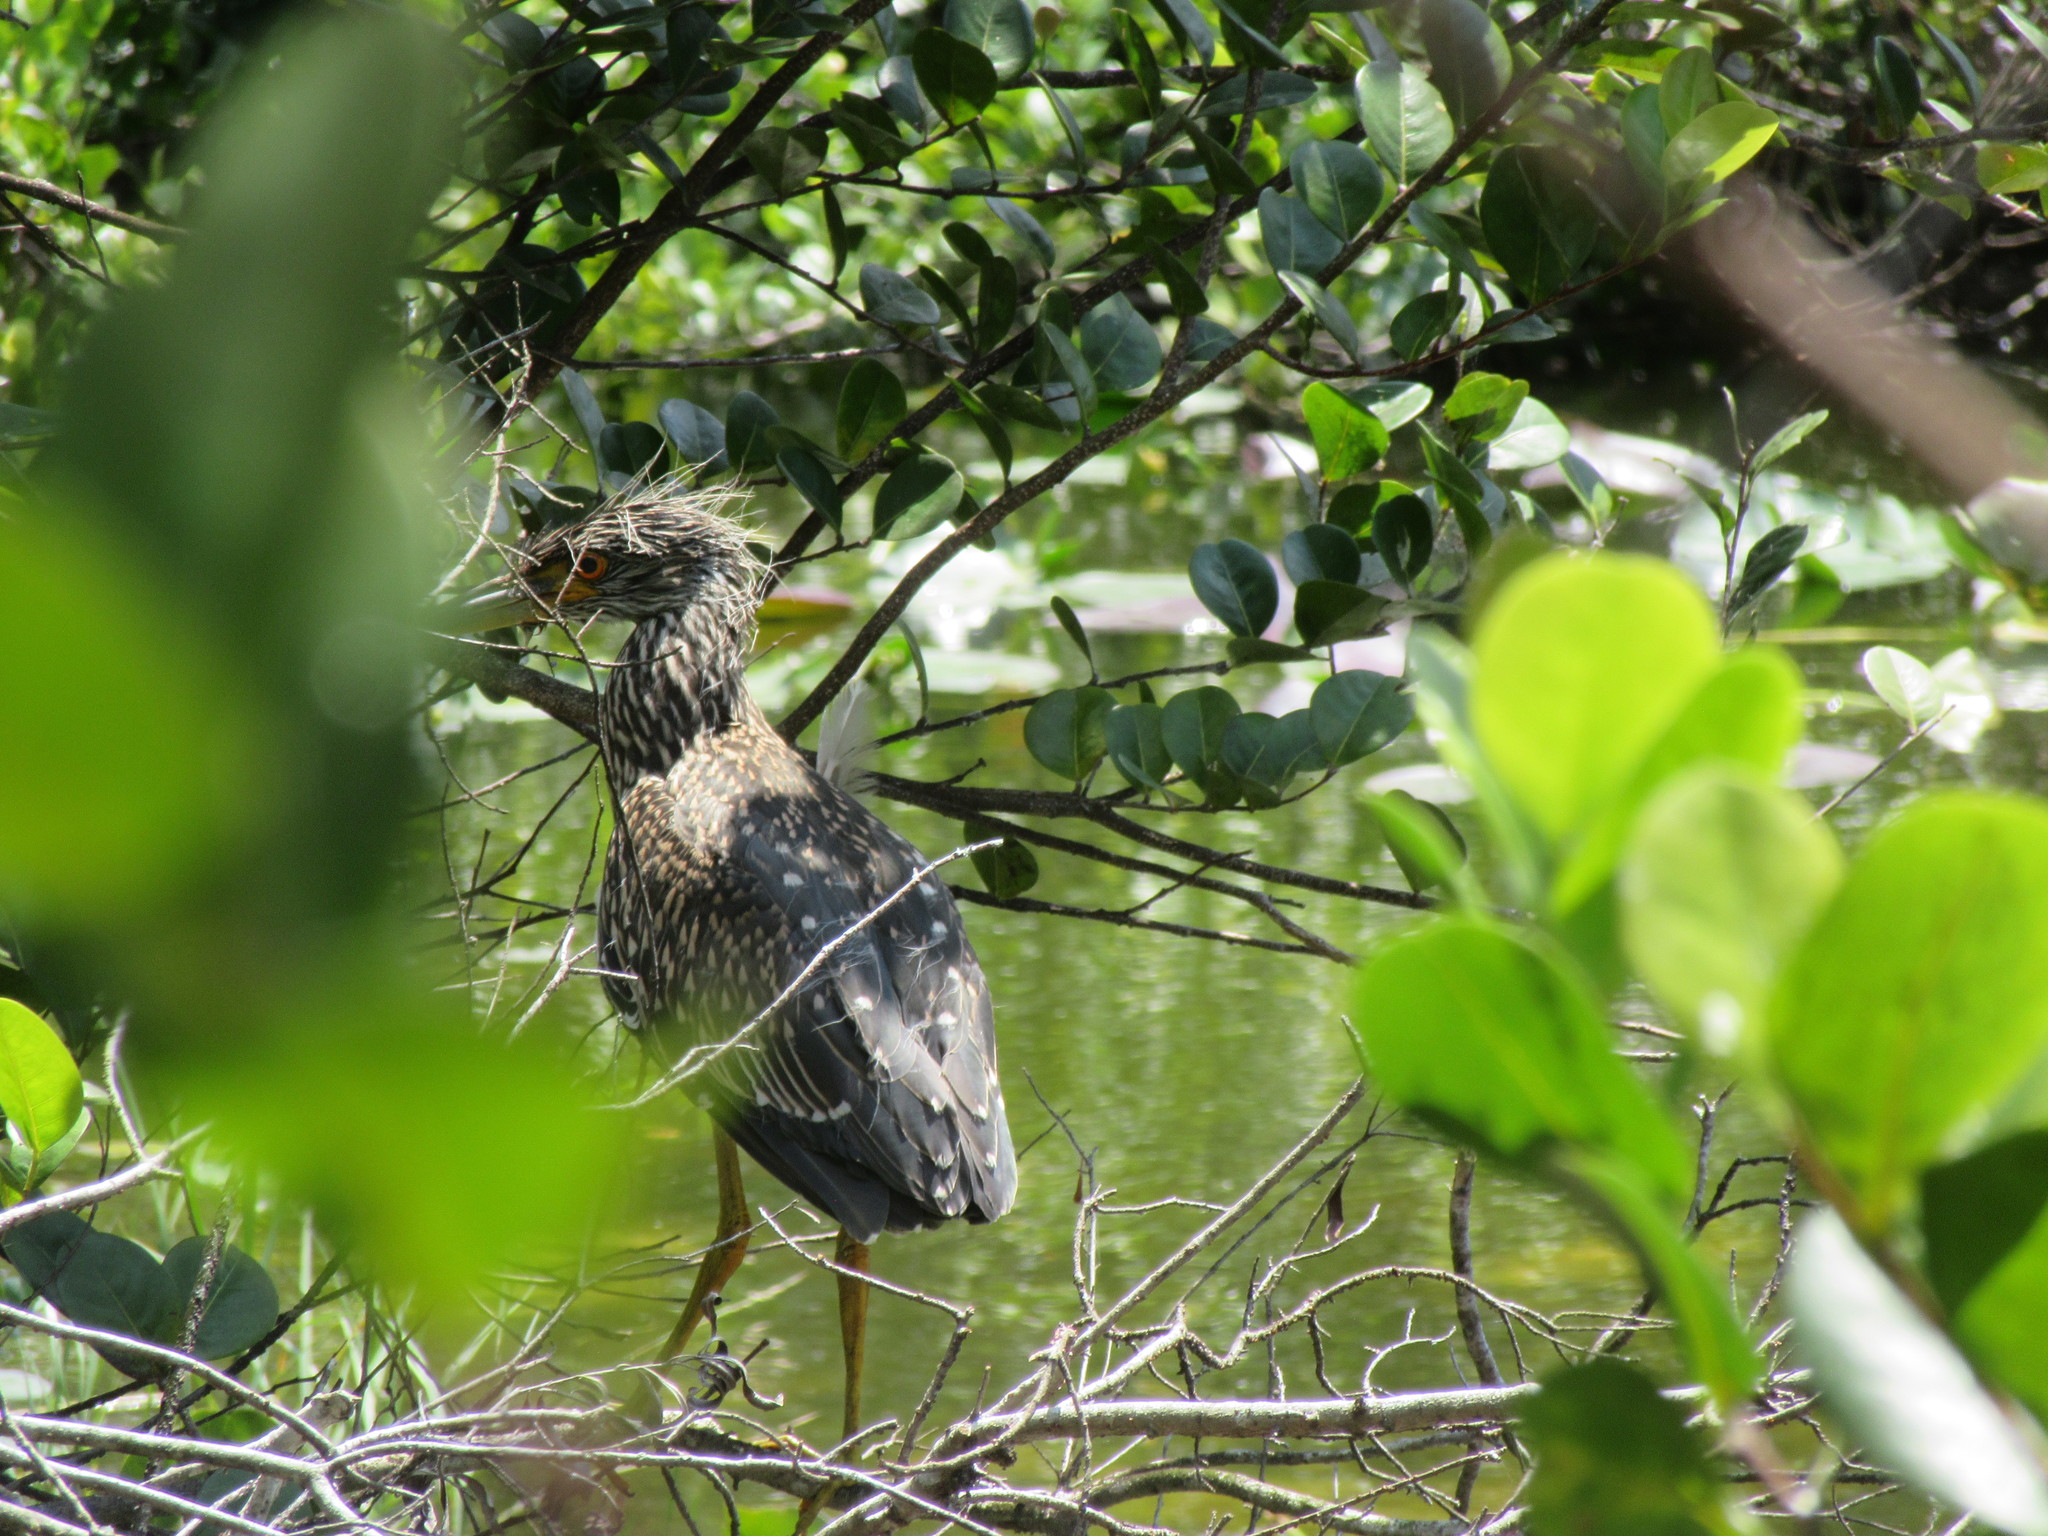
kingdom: Animalia
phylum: Chordata
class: Aves
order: Pelecaniformes
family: Ardeidae
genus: Nyctanassa
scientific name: Nyctanassa violacea
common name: Yellow-crowned night heron
